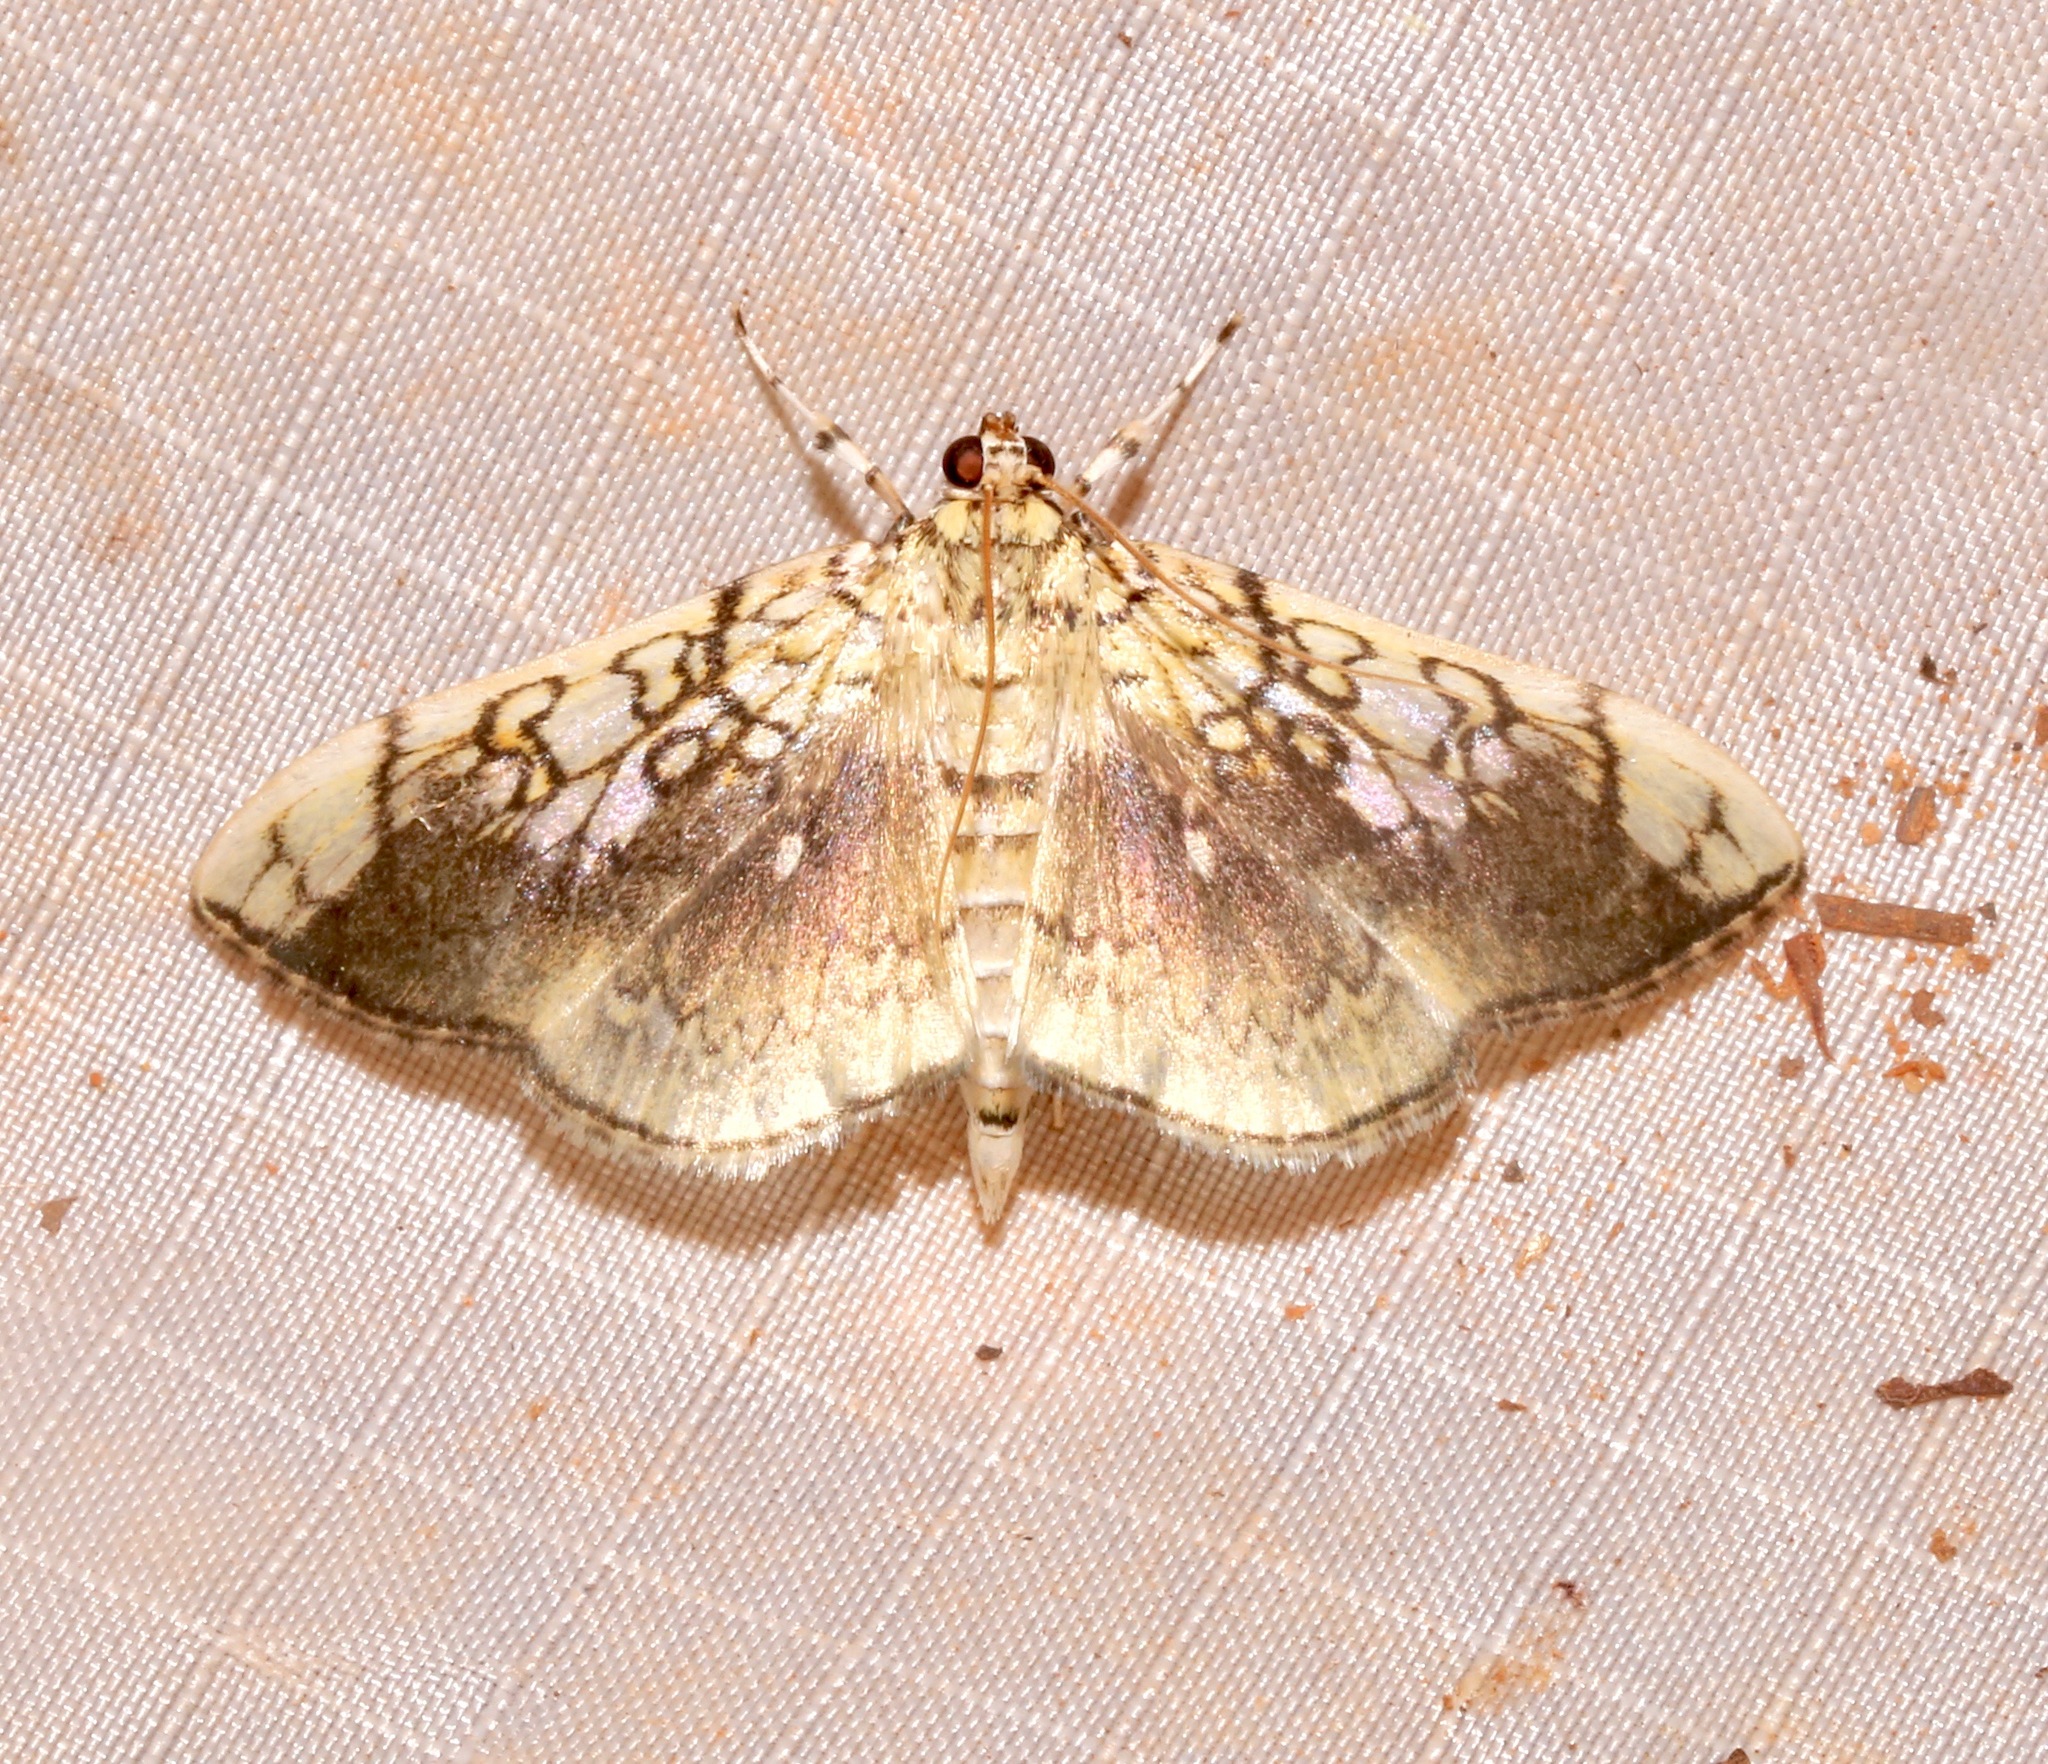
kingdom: Animalia
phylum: Arthropoda
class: Insecta
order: Lepidoptera
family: Crambidae
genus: Pantographa
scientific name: Pantographa limata
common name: Basswood leafroller moth
